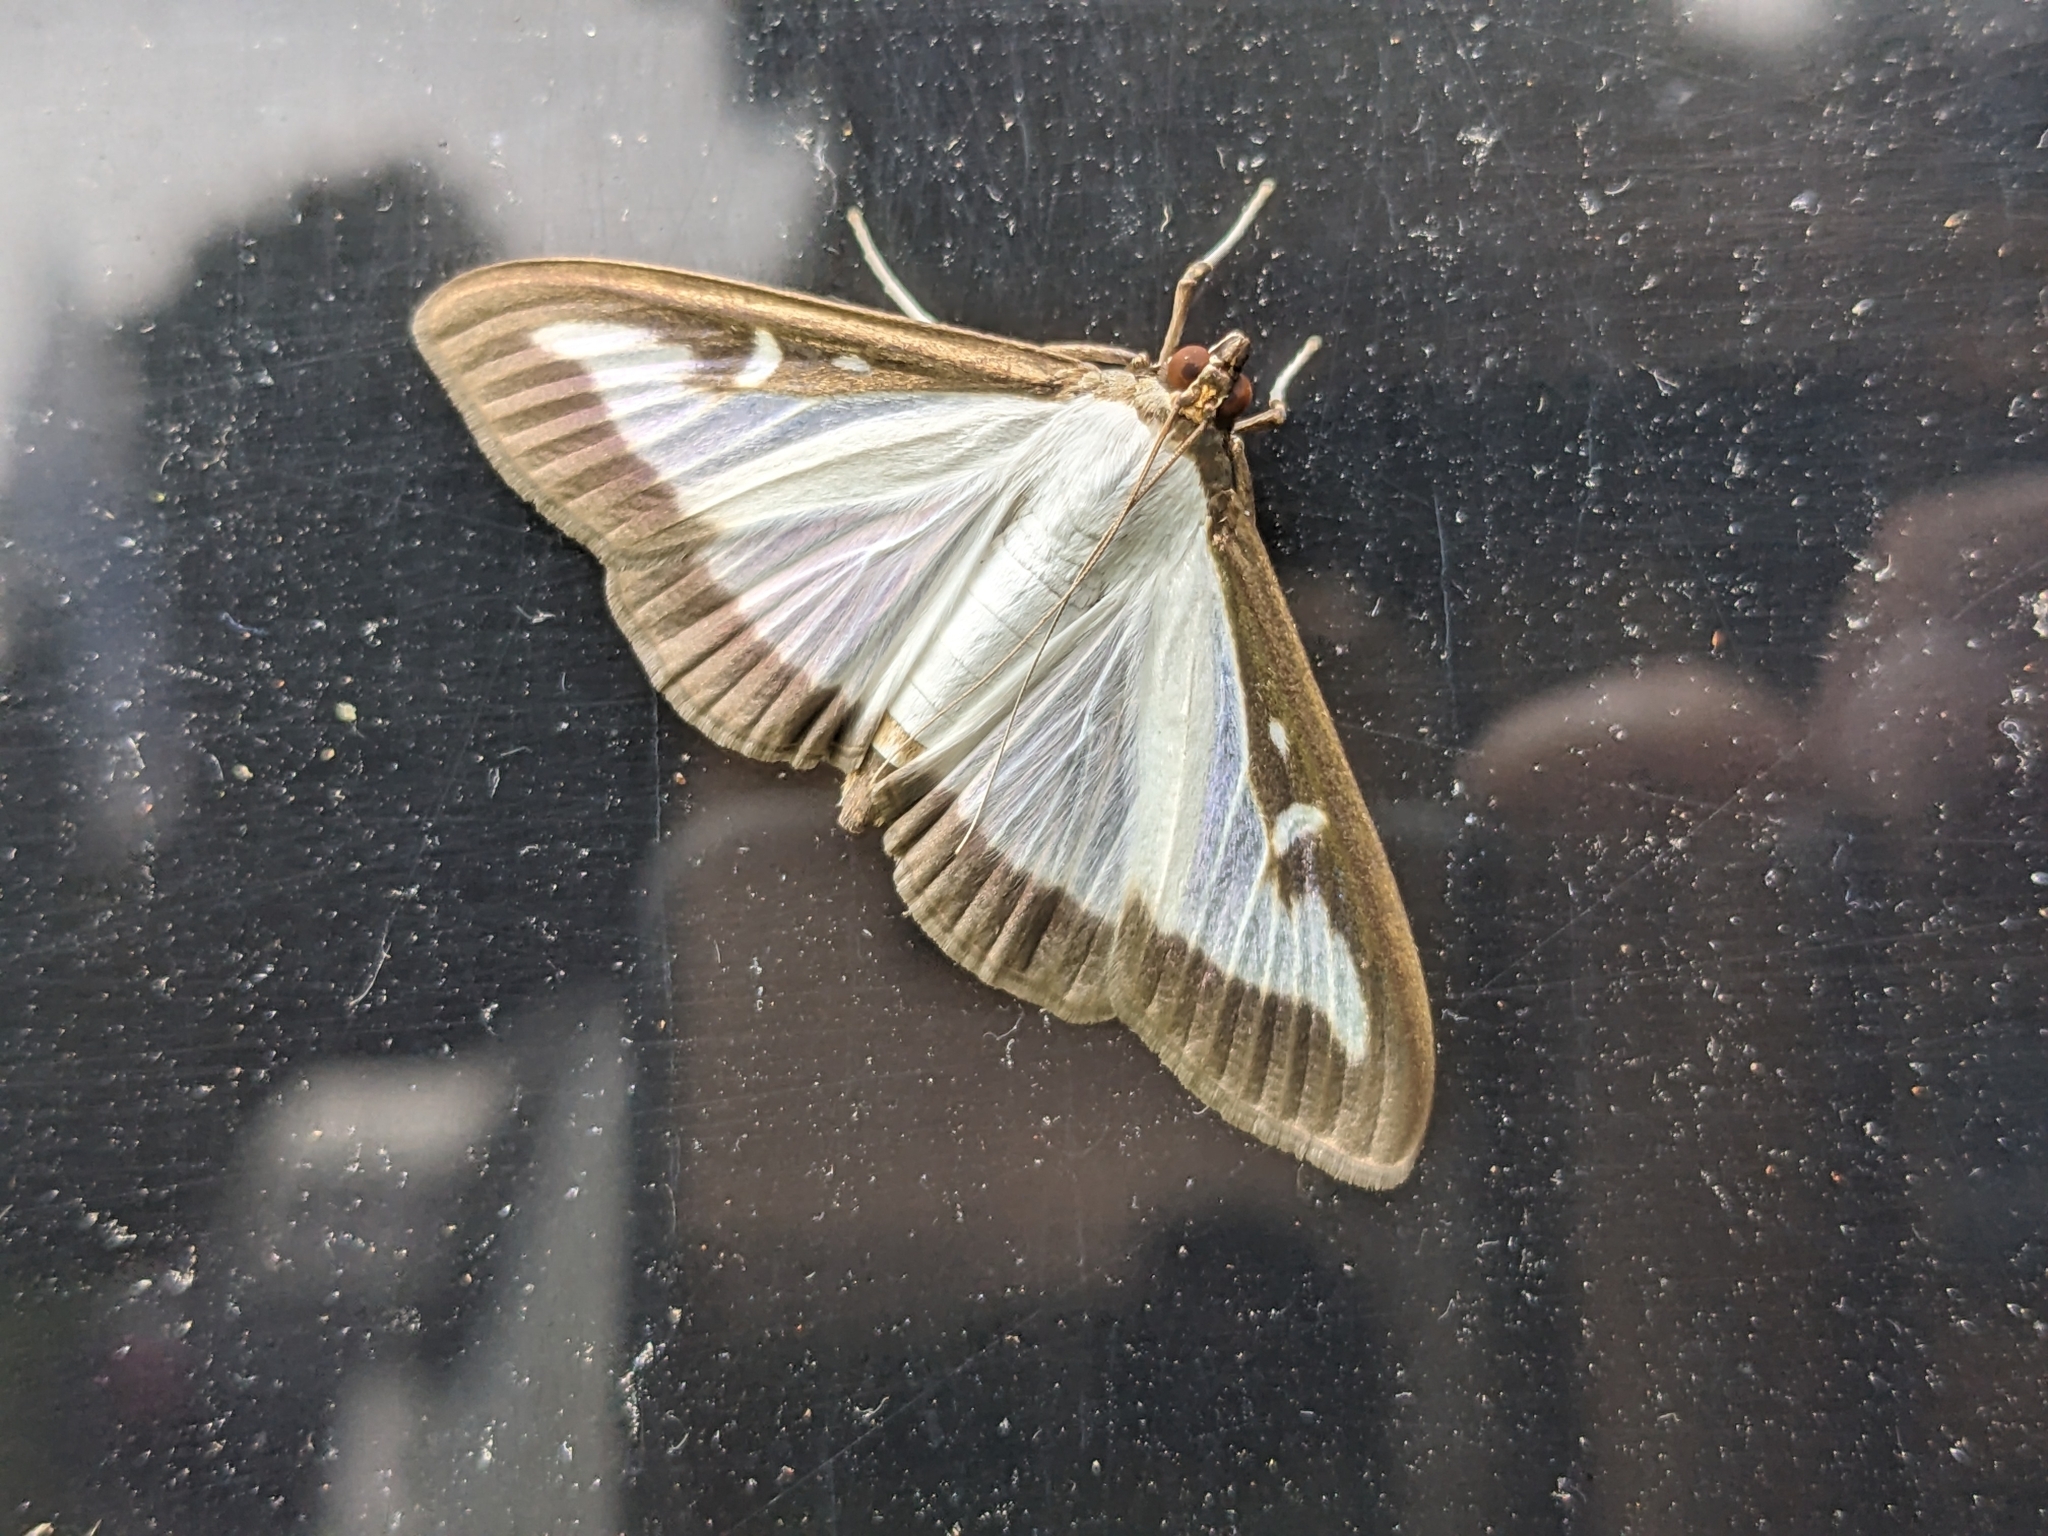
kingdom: Animalia
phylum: Arthropoda
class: Insecta
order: Lepidoptera
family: Crambidae
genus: Cydalima
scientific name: Cydalima perspectalis
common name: Box tree moth
